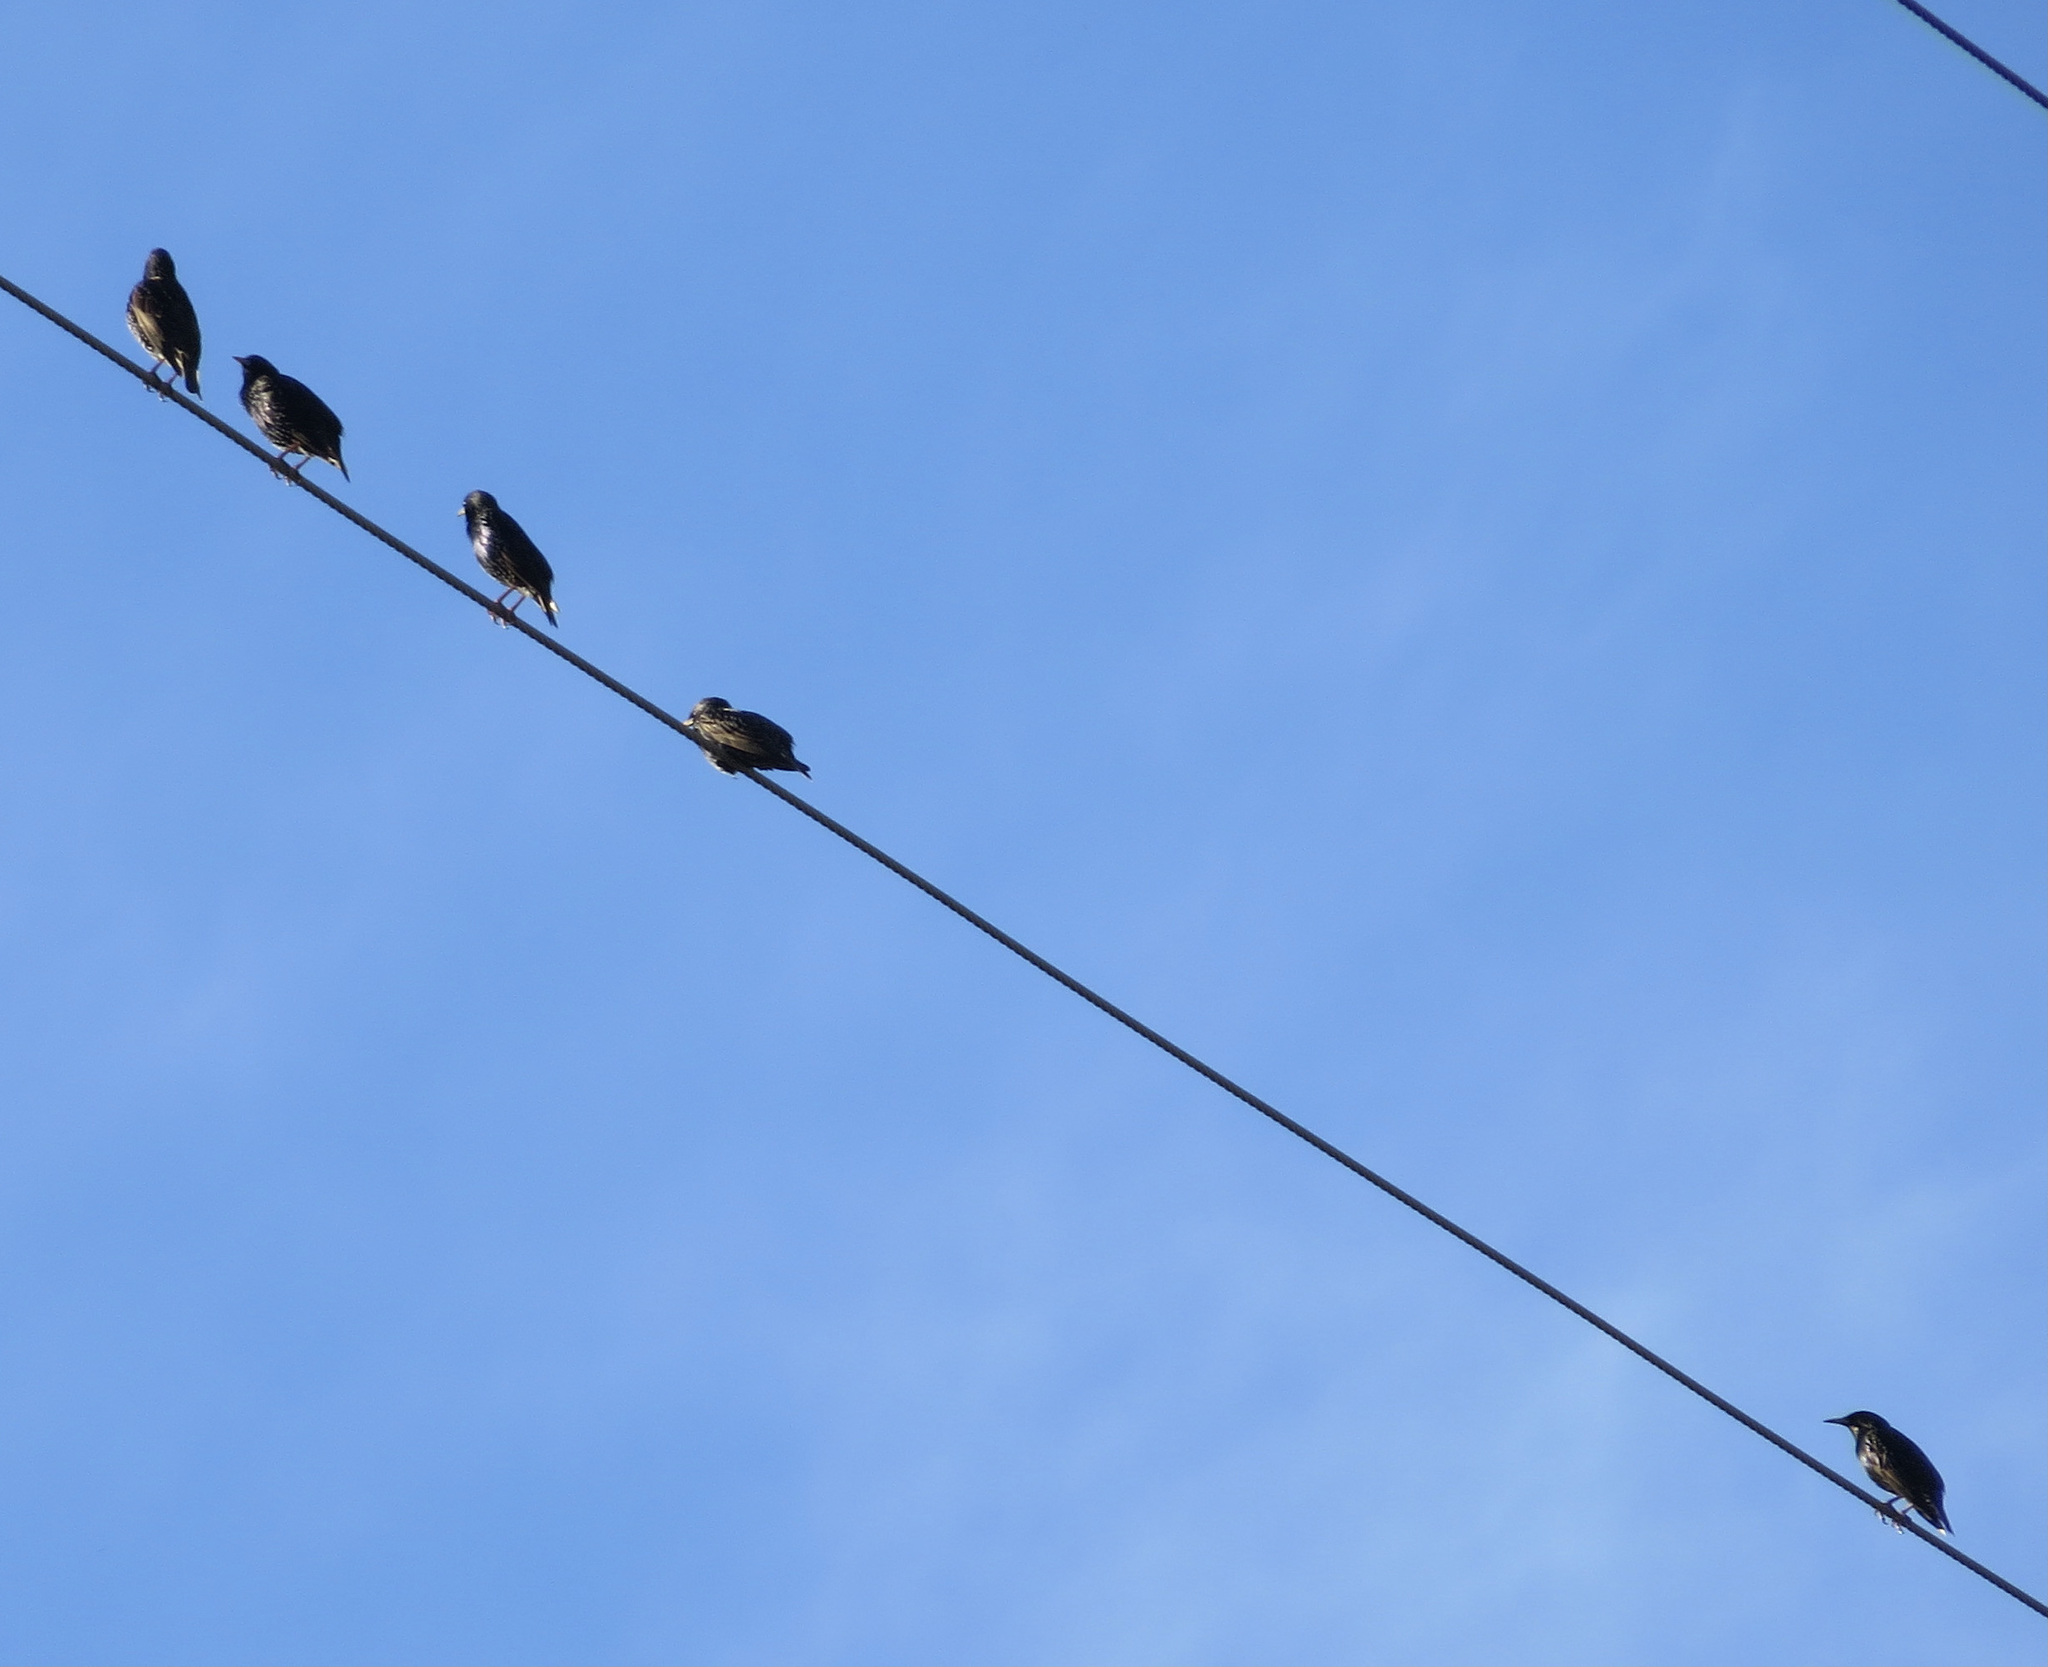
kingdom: Animalia
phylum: Chordata
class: Aves
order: Passeriformes
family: Sturnidae
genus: Sturnus
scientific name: Sturnus vulgaris
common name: Common starling
